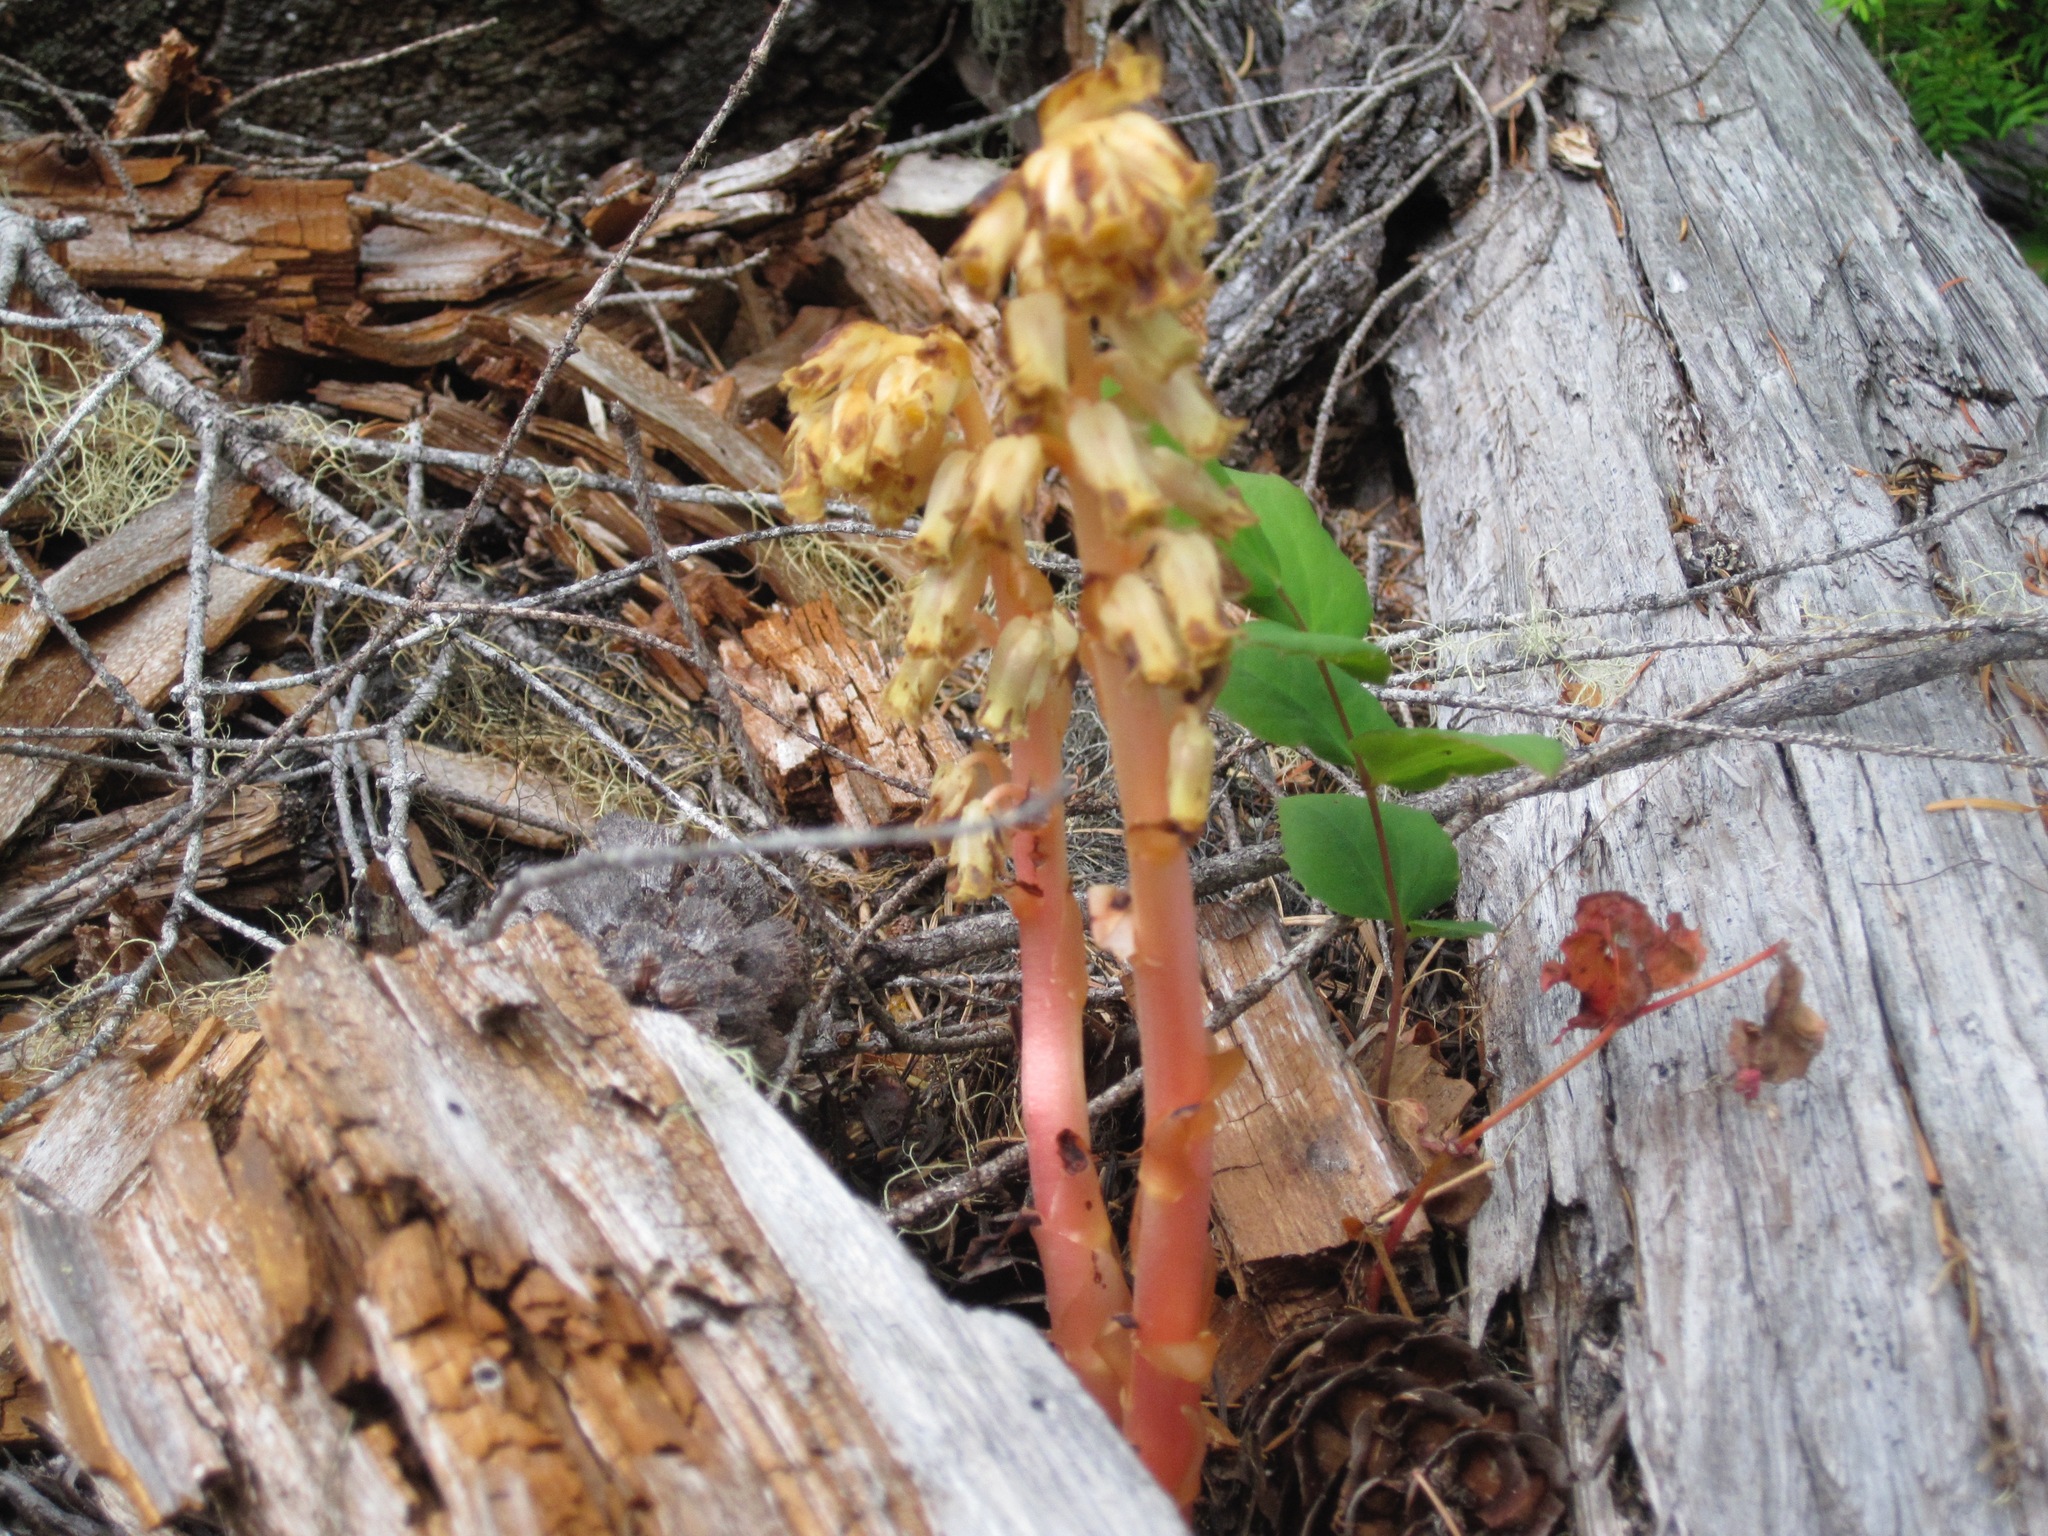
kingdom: Plantae
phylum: Tracheophyta
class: Magnoliopsida
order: Ericales
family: Ericaceae
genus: Hypopitys
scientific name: Hypopitys monotropa
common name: Yellow bird's-nest
